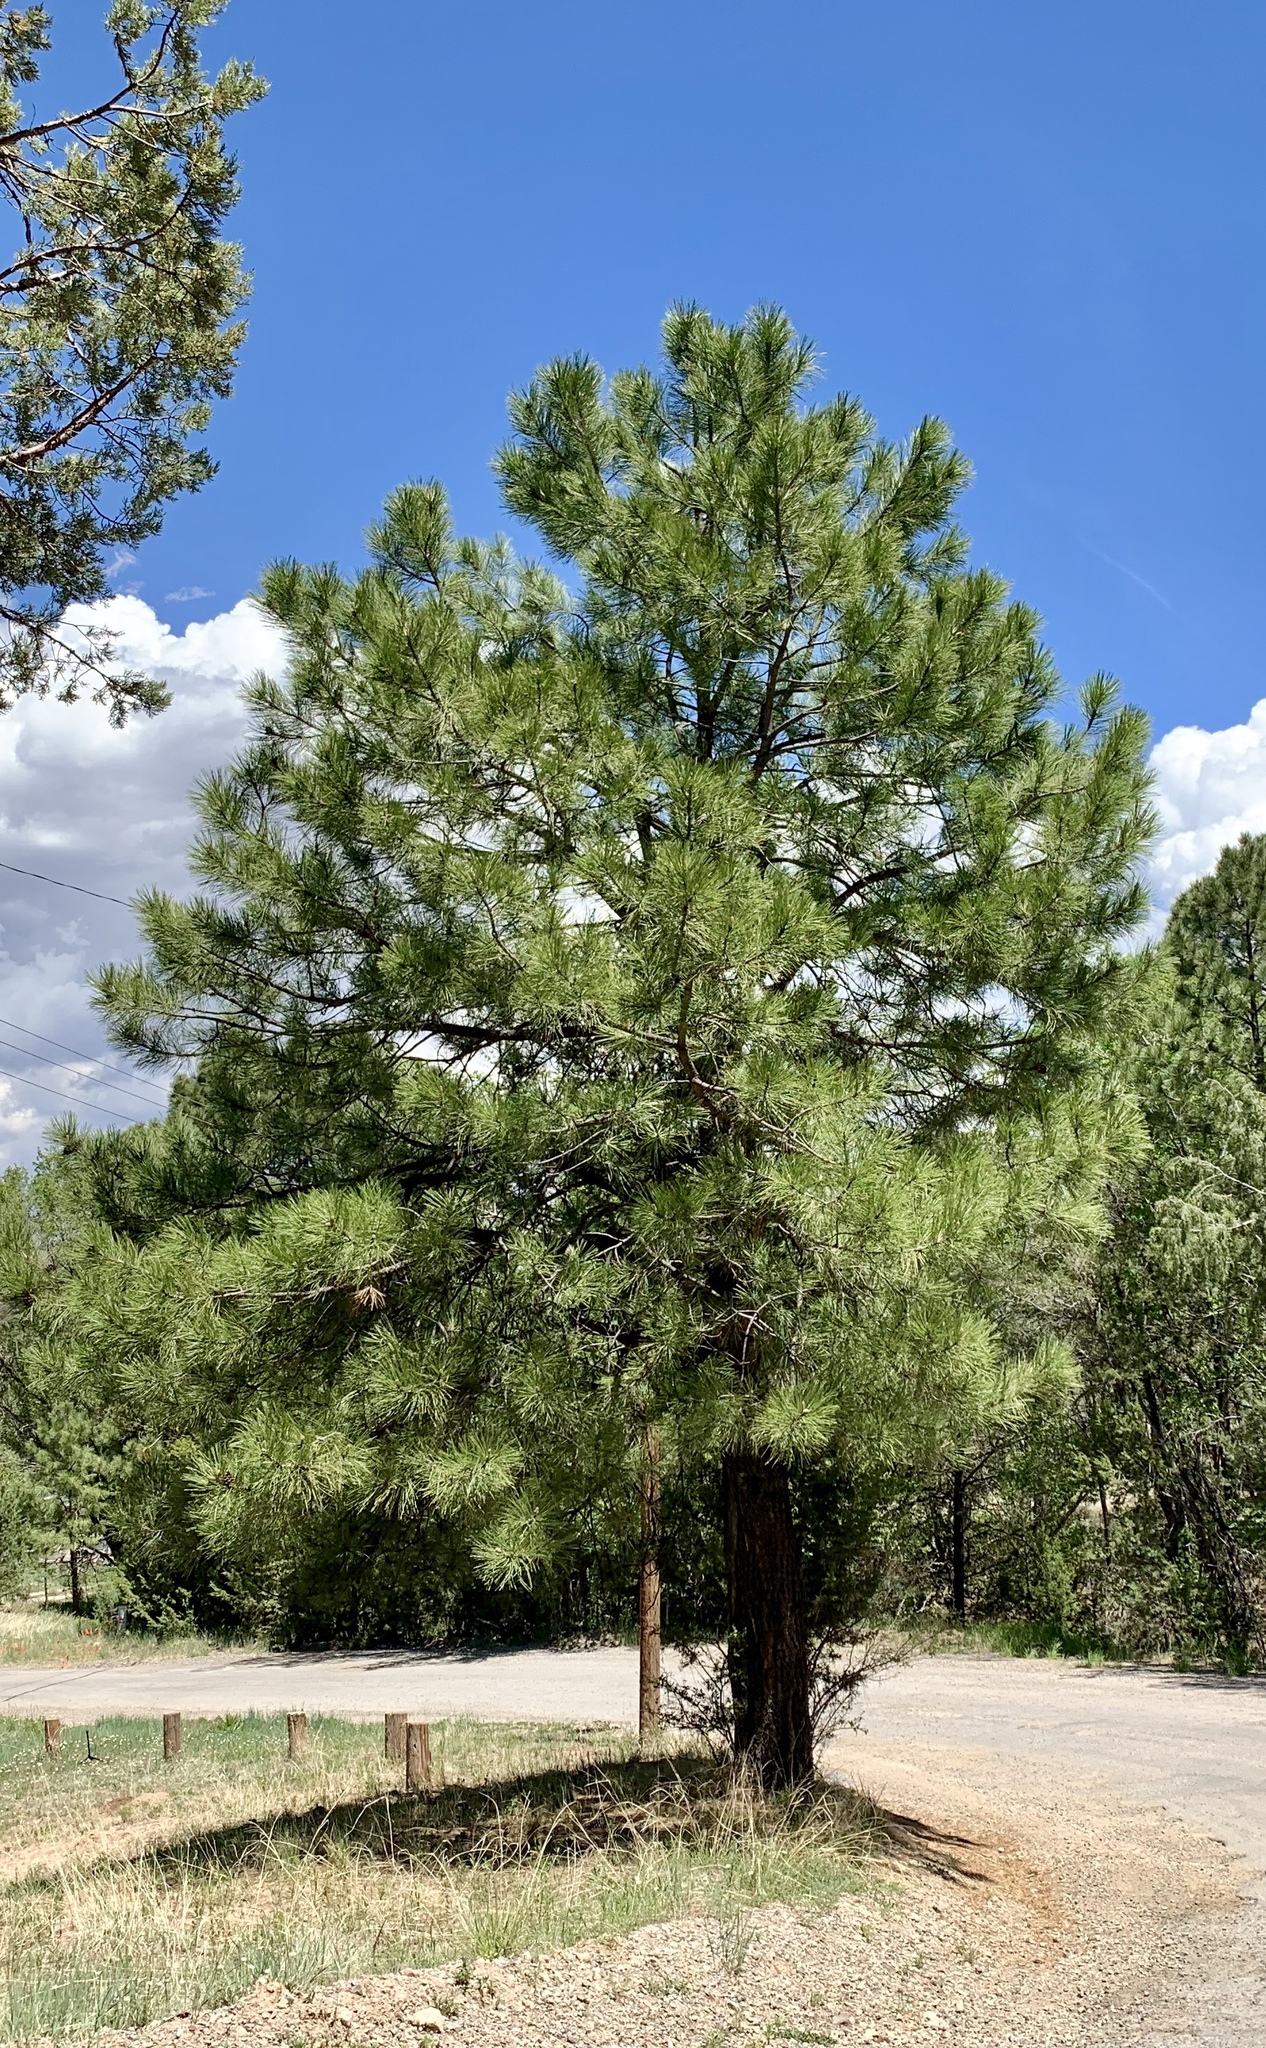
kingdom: Plantae
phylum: Tracheophyta
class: Pinopsida
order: Pinales
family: Pinaceae
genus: Pinus
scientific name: Pinus ponderosa
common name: Western yellow-pine
